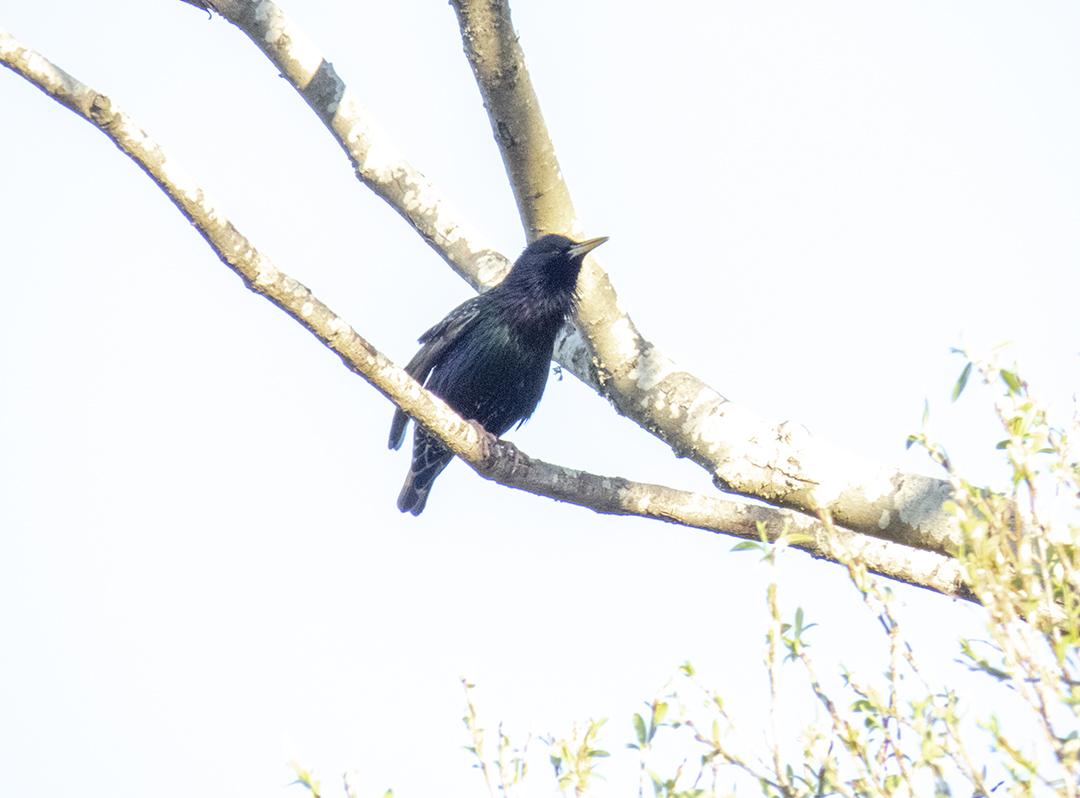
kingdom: Animalia
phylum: Chordata
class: Aves
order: Passeriformes
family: Sturnidae
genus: Sturnus
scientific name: Sturnus vulgaris
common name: Common starling
